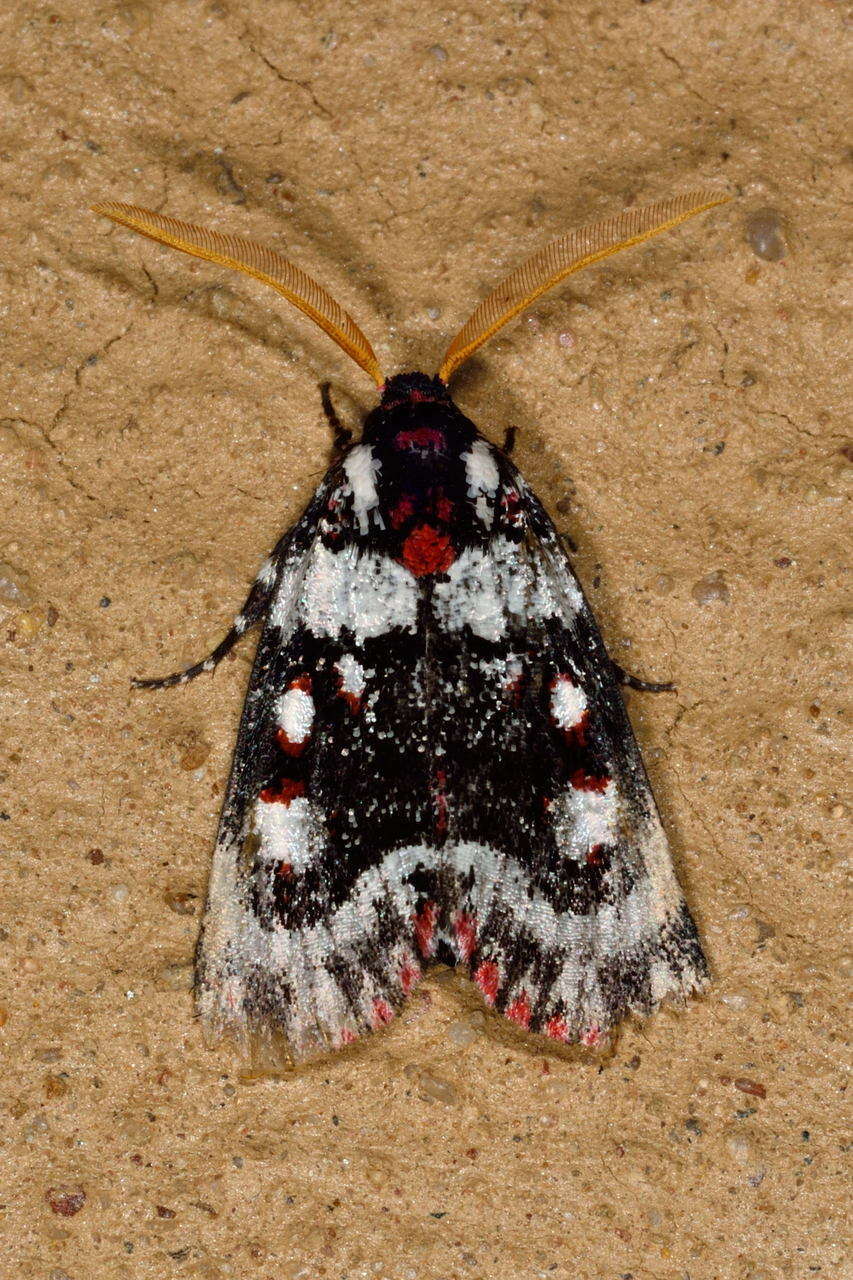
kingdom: Animalia
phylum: Arthropoda
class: Insecta
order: Lepidoptera
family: Noctuidae
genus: Cremnophora
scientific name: Cremnophora angasii
